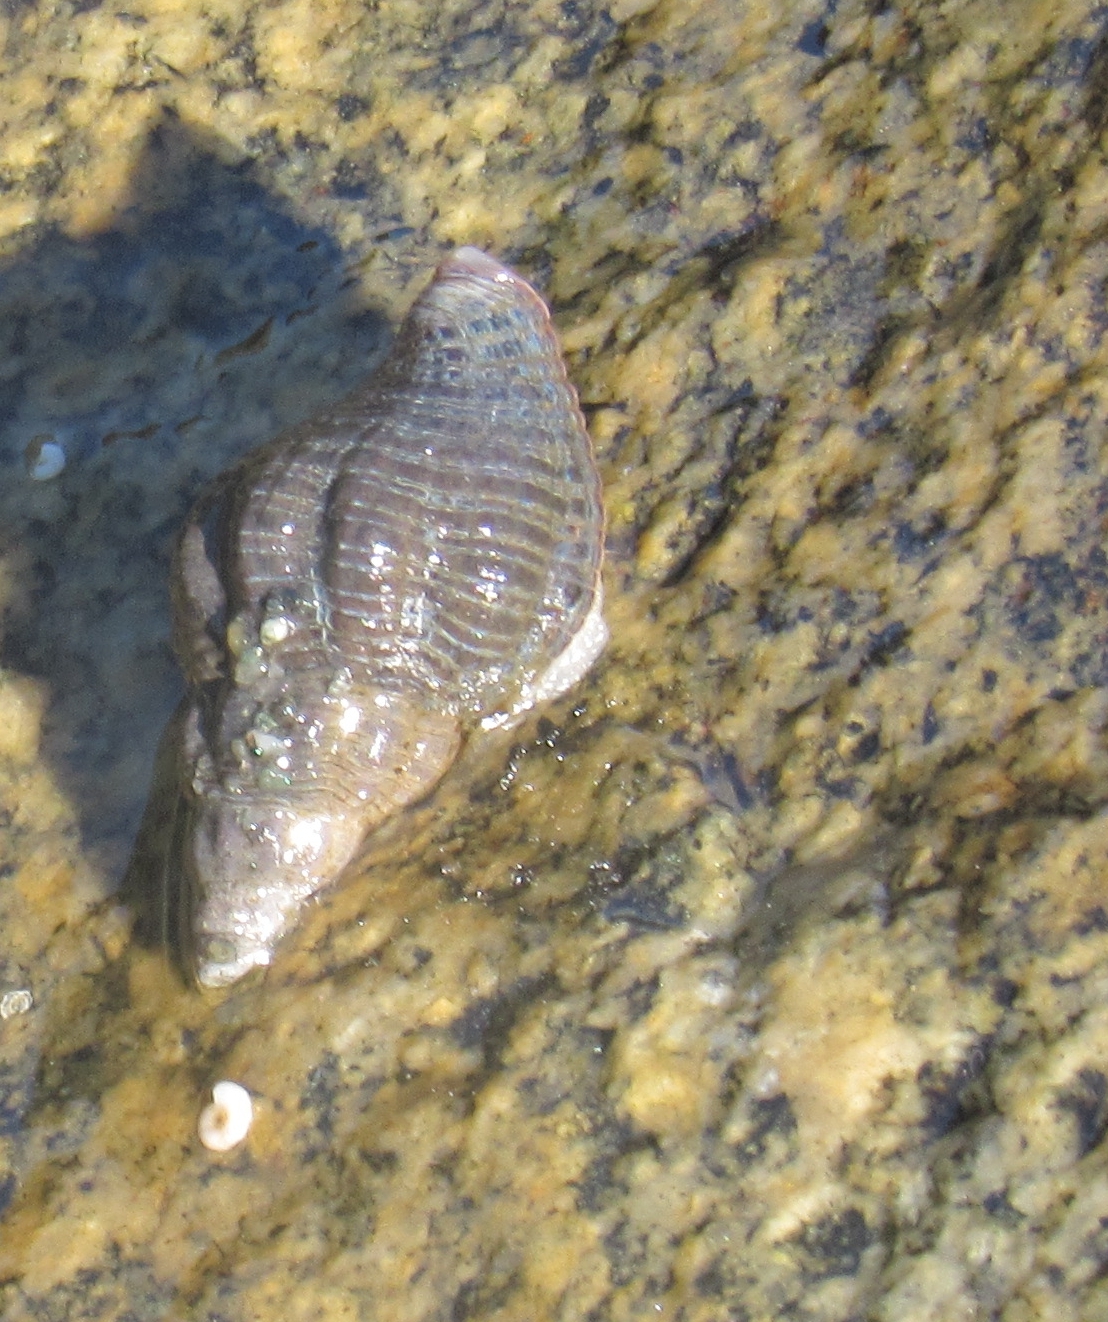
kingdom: Animalia
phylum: Mollusca
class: Gastropoda
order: Neogastropoda
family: Tudiclidae
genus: Lirabuccinum
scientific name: Lirabuccinum dirum
